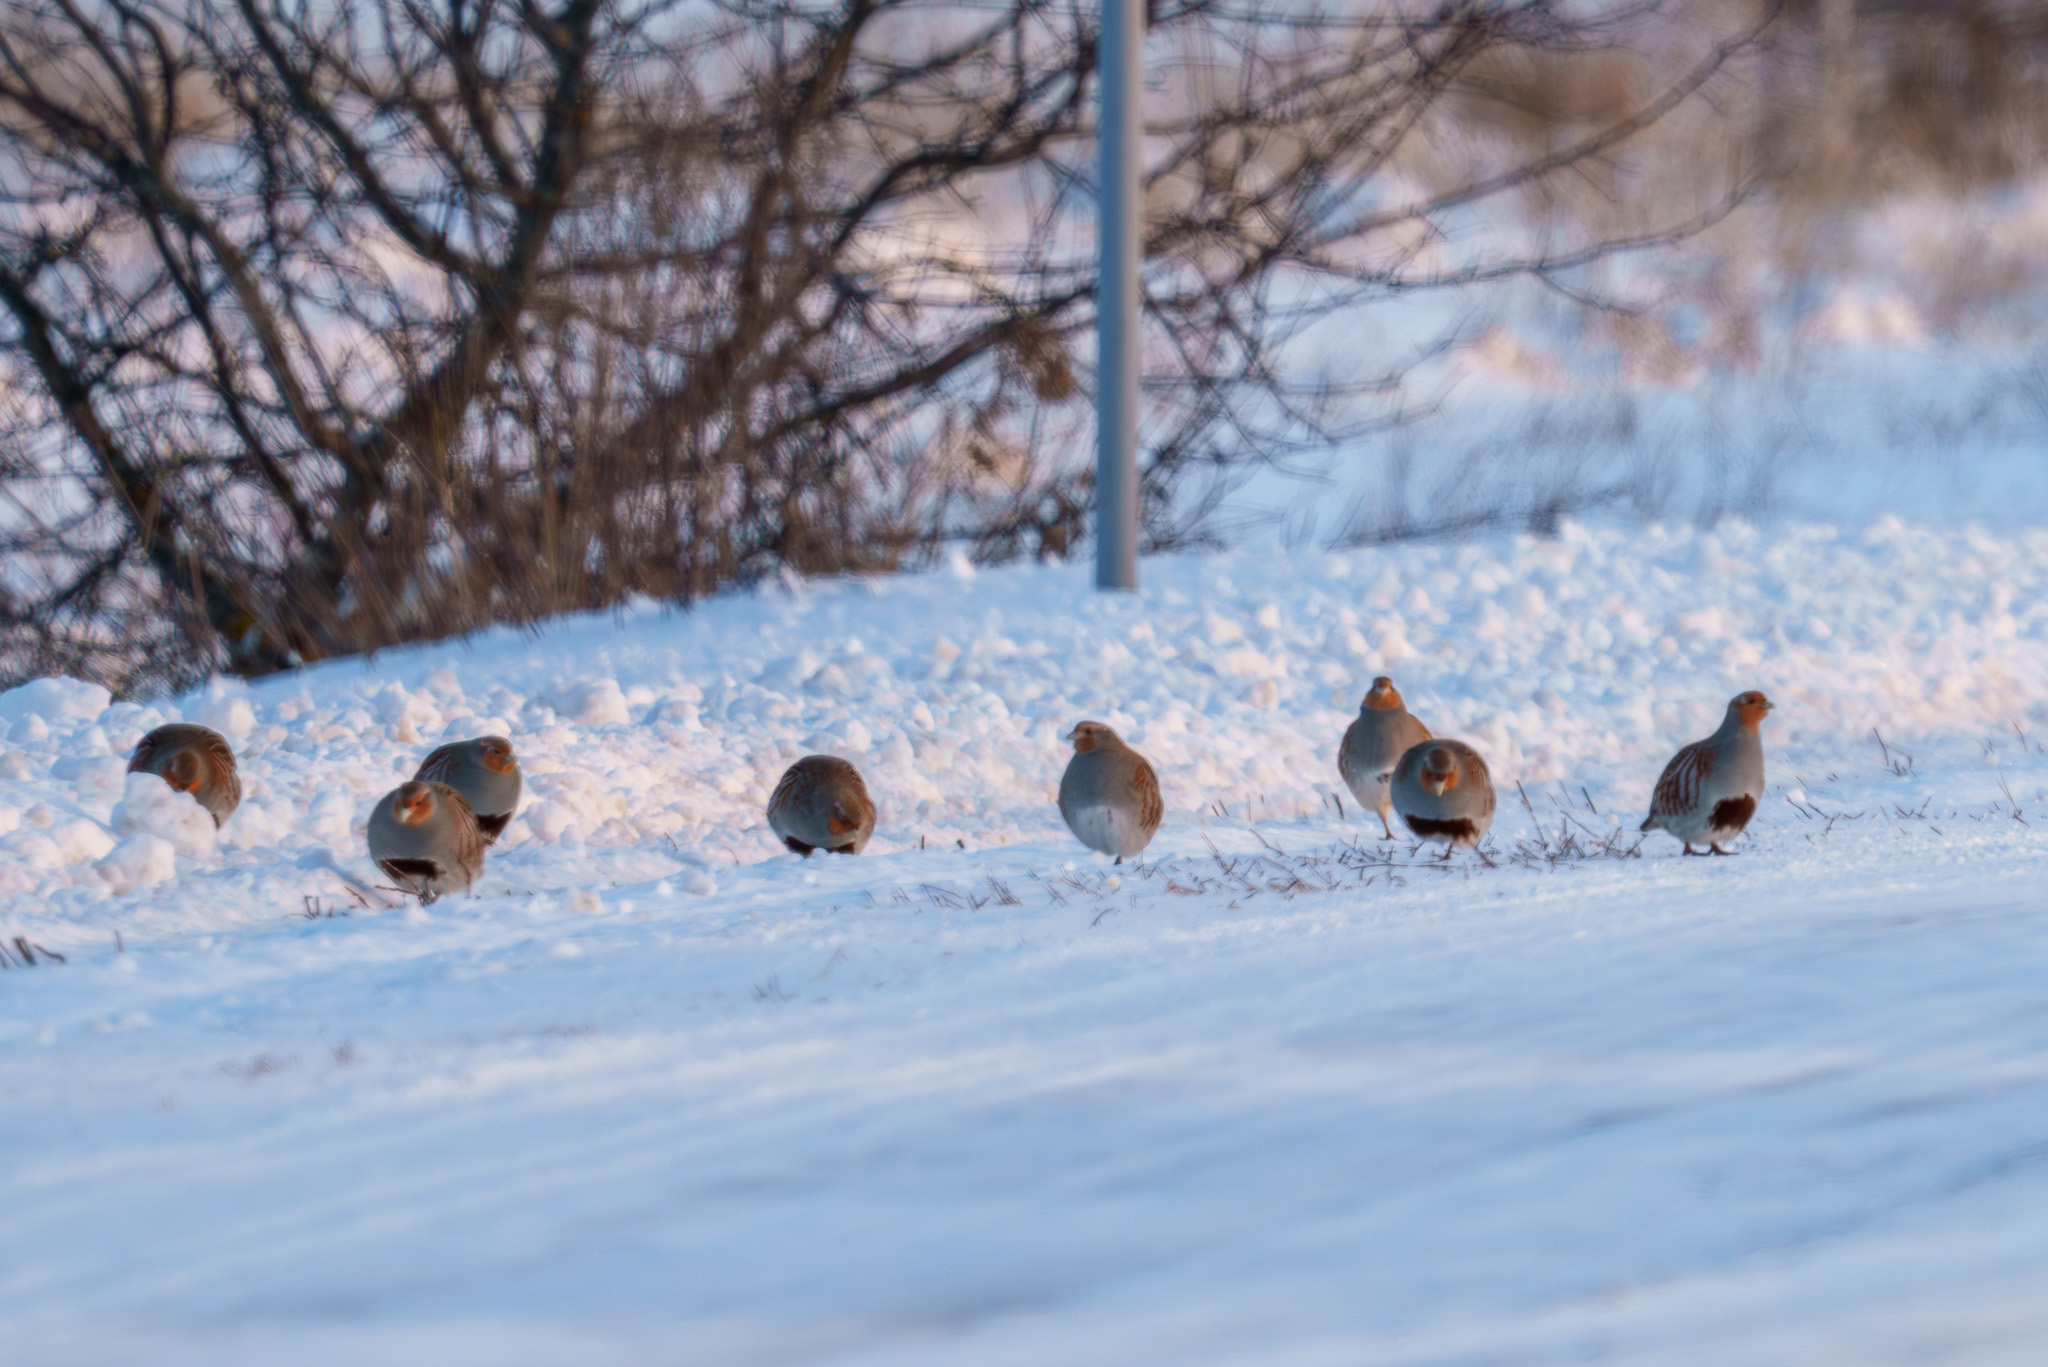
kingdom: Animalia
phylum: Chordata
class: Aves
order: Galliformes
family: Phasianidae
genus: Perdix
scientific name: Perdix perdix
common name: Grey partridge
